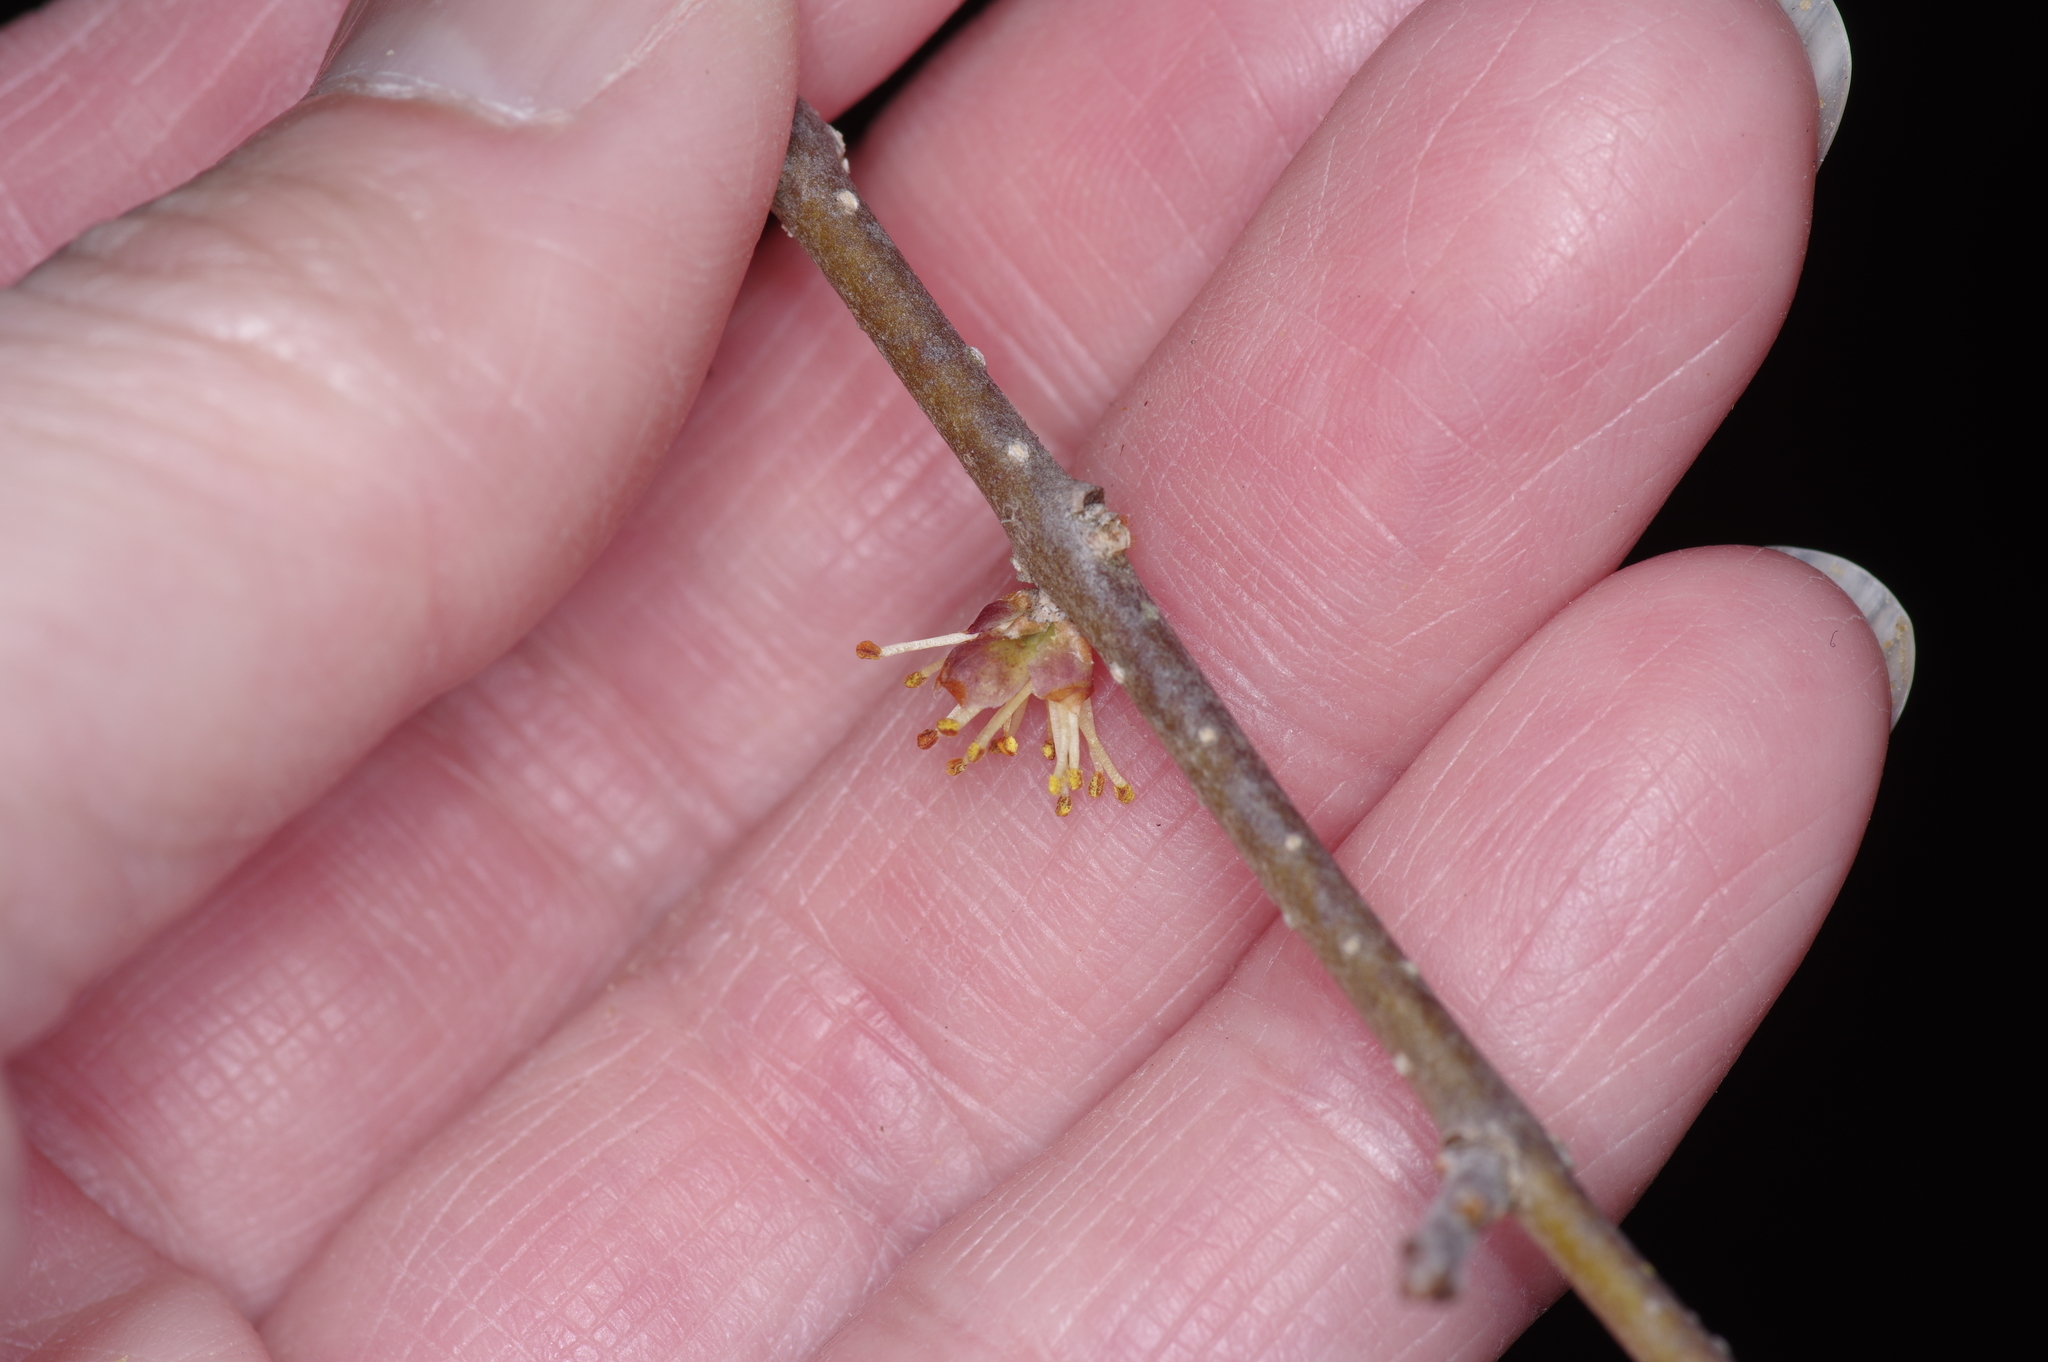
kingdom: Plantae
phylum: Tracheophyta
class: Magnoliopsida
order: Lamiales
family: Oleaceae
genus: Forestiera
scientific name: Forestiera pubescens
